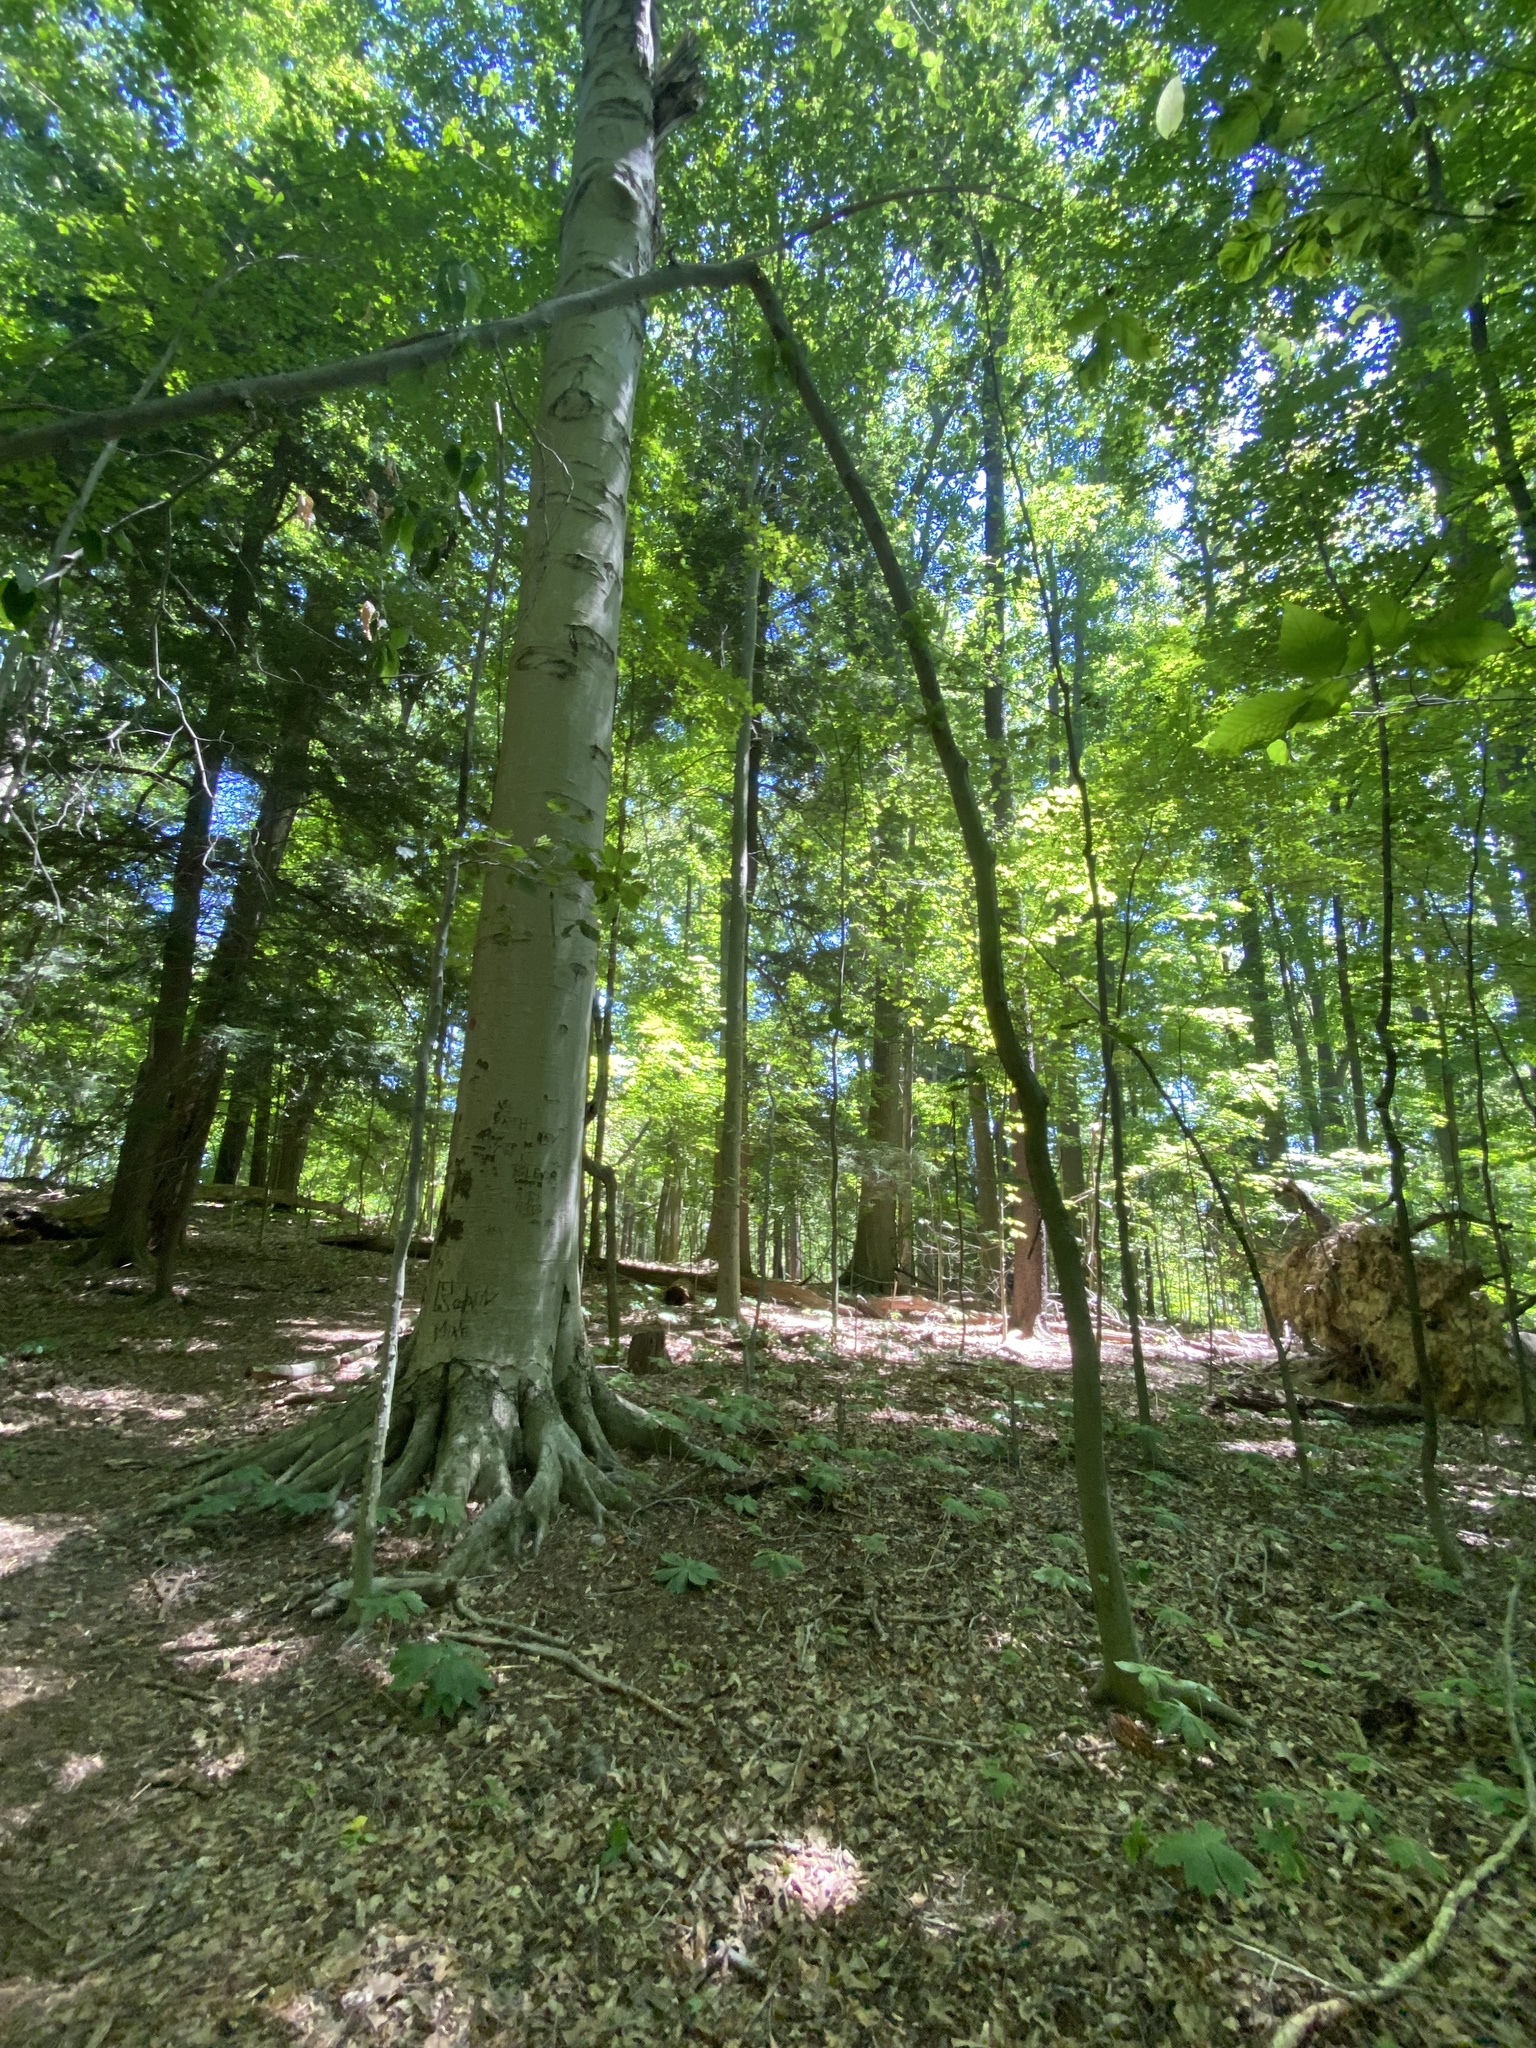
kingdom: Animalia
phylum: Nematoda
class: Chromadorea
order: Rhabditida
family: Anguinidae
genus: Litylenchus
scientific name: Litylenchus crenatae
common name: Beech leaf disease
